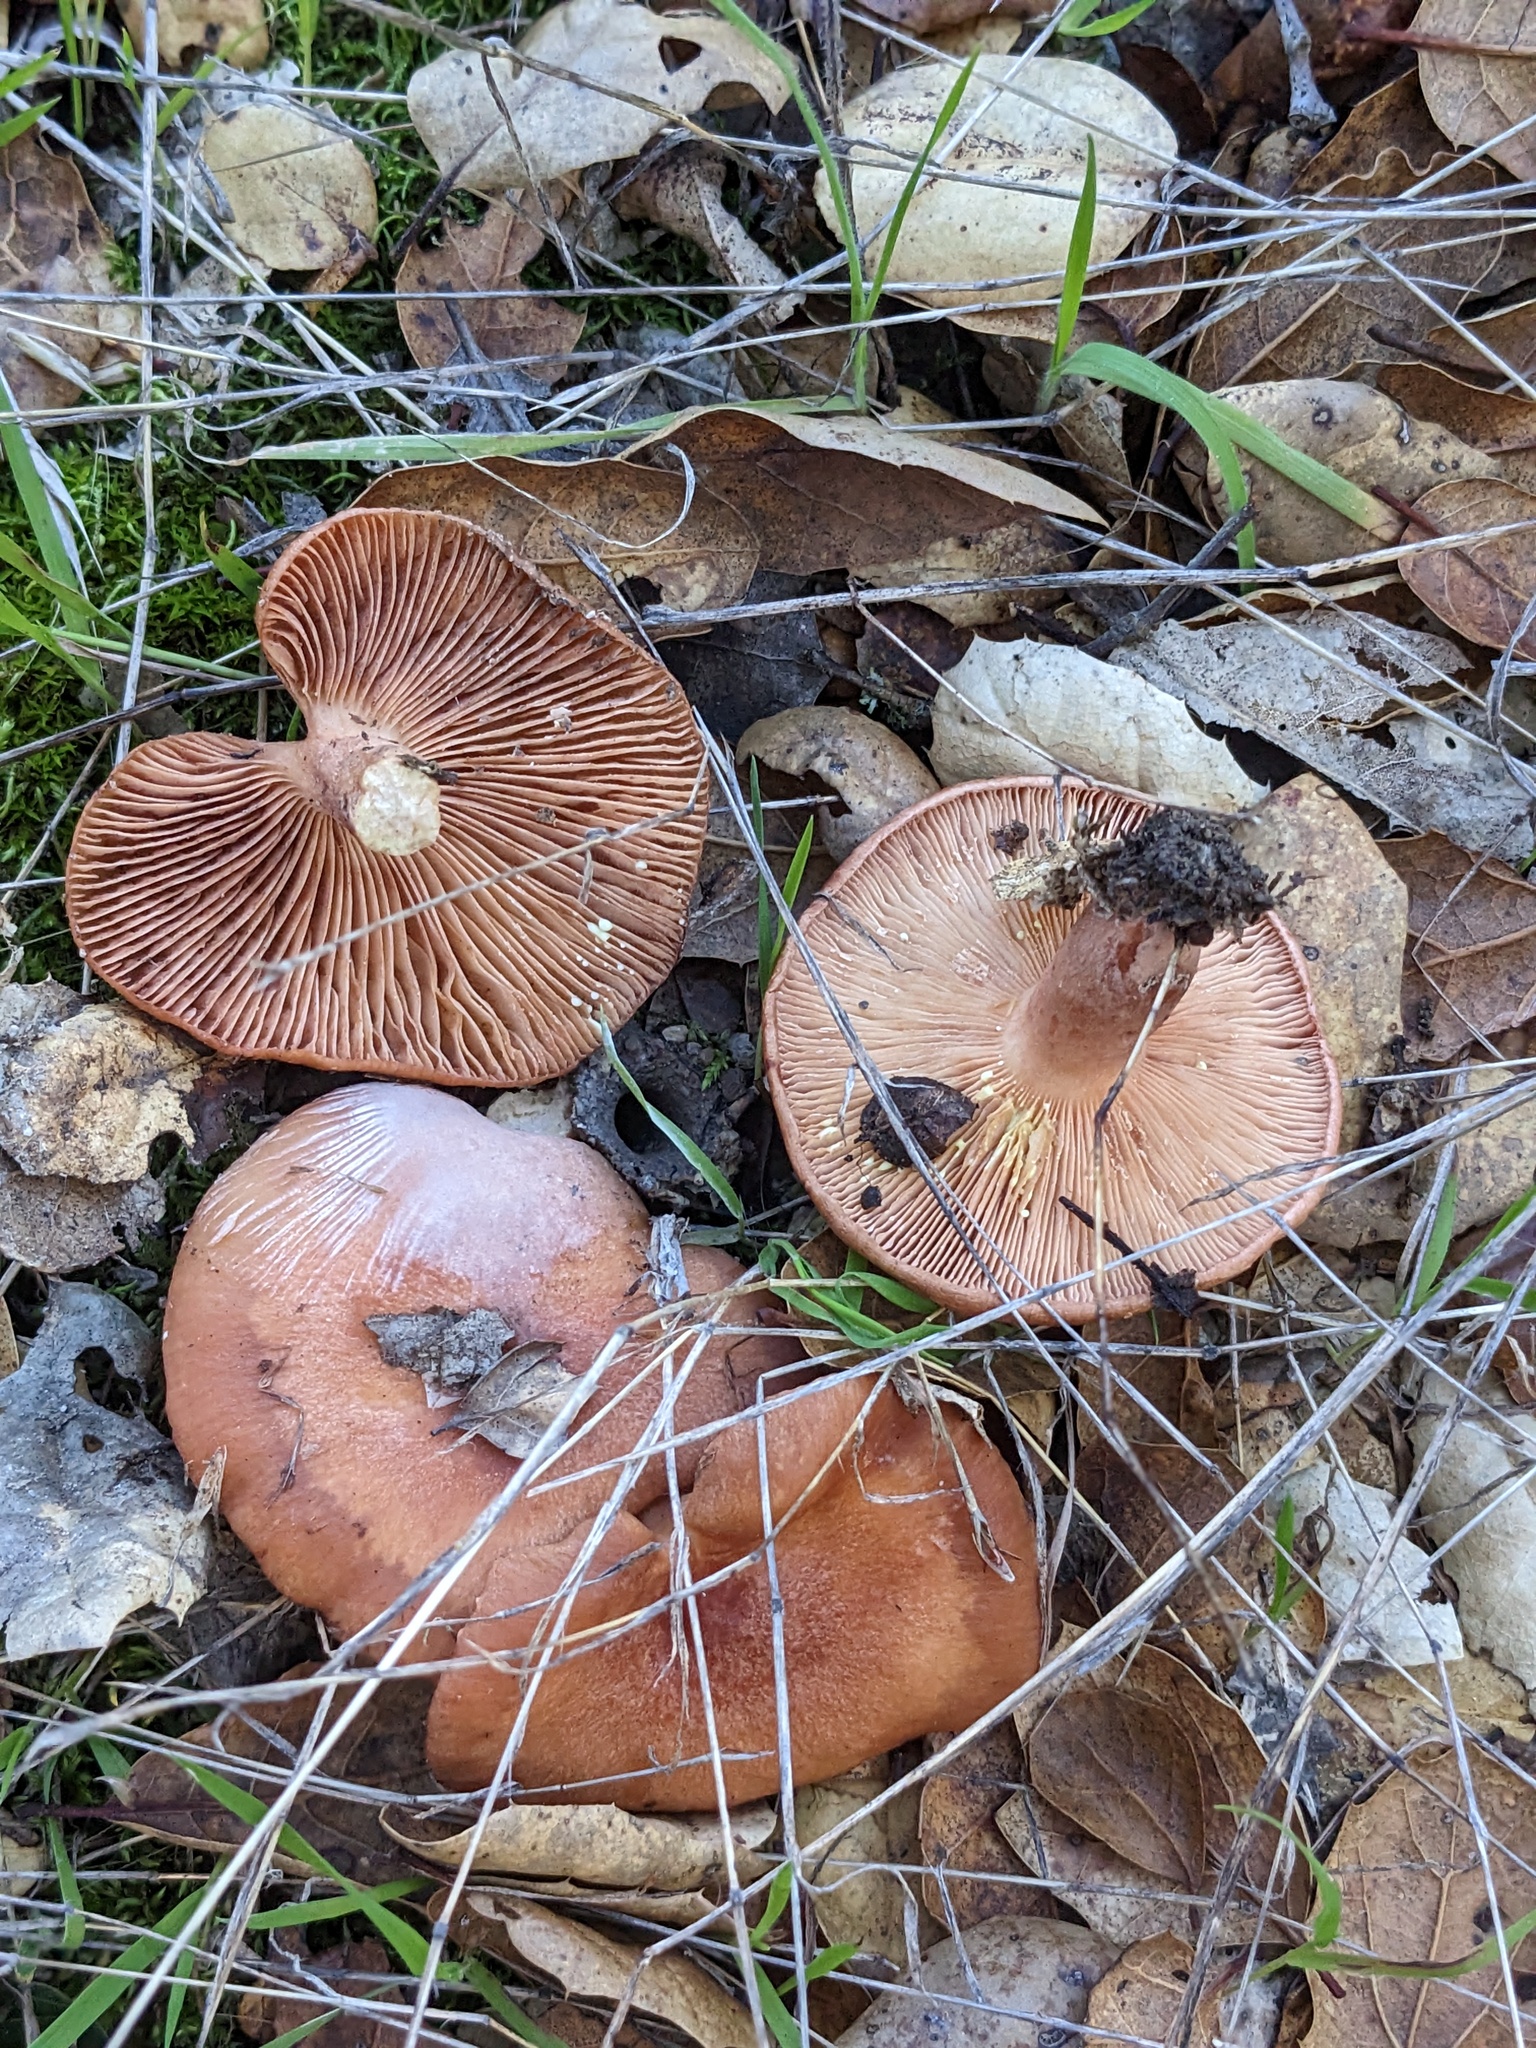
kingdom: Fungi
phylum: Basidiomycota
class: Agaricomycetes
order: Russulales
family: Russulaceae
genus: Lactarius
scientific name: Lactarius xanthogalactus
